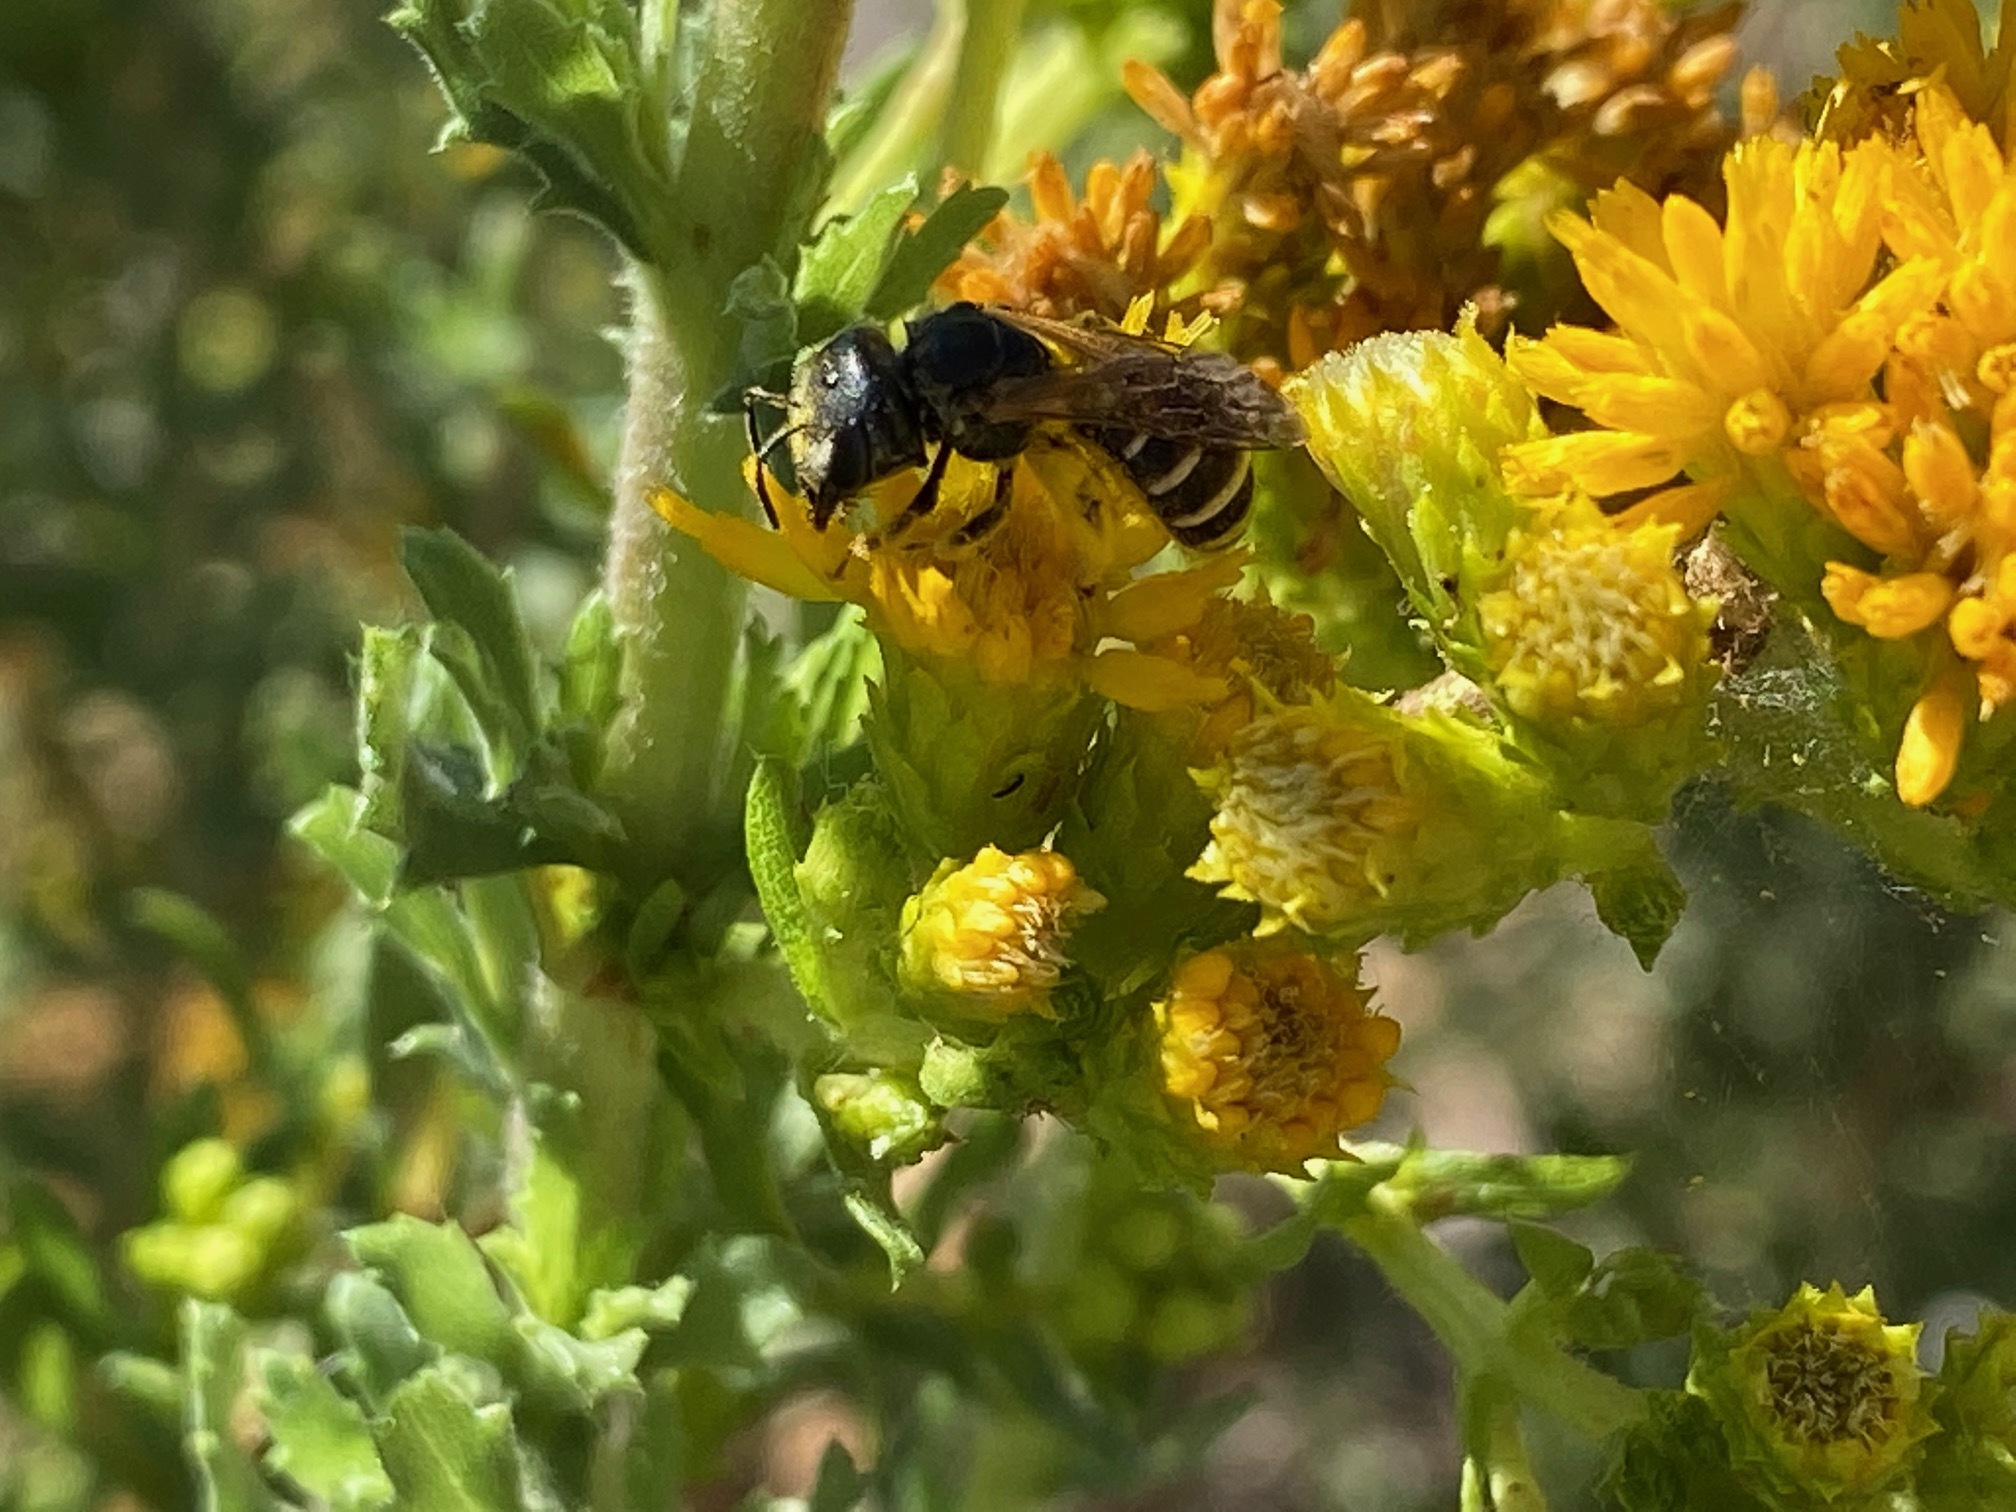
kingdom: Animalia
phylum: Arthropoda
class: Insecta
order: Hymenoptera
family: Halictidae
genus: Halictus
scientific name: Halictus ligatus
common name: Ligated furrow bee
